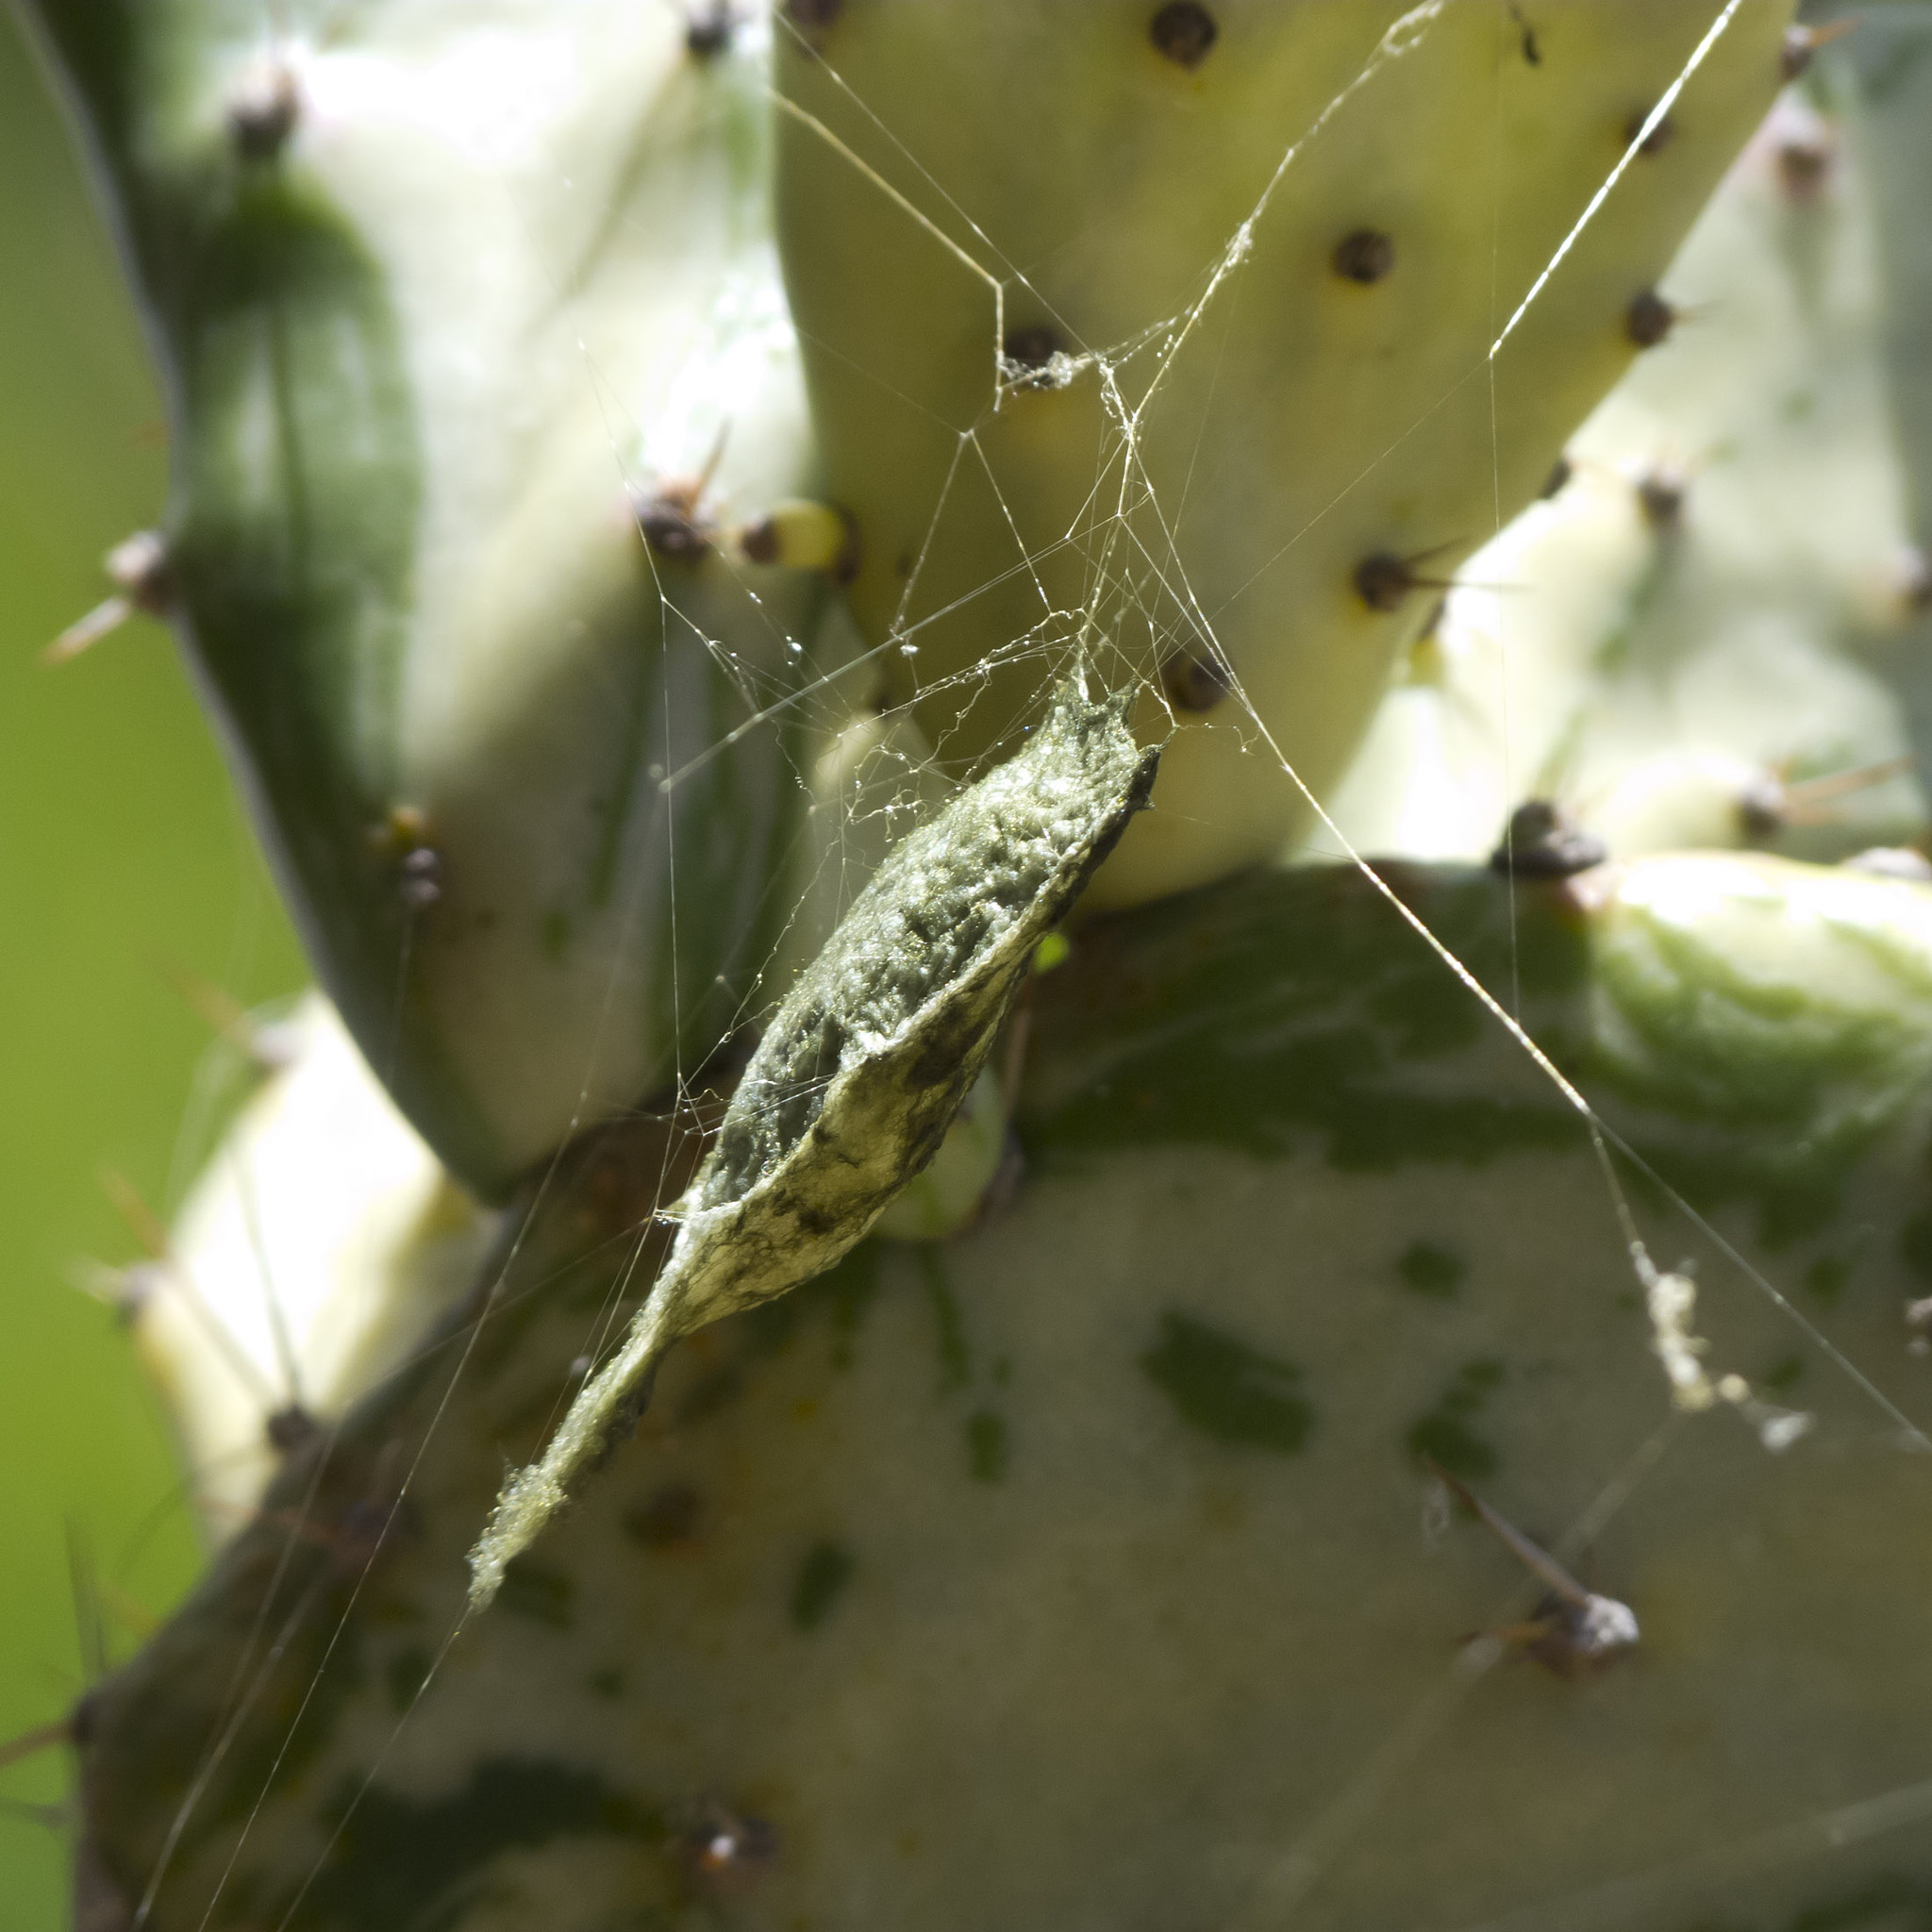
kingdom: Animalia
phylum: Arthropoda
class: Arachnida
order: Araneae
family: Araneidae
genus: Argiope
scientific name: Argiope argentata
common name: Orb weavers
